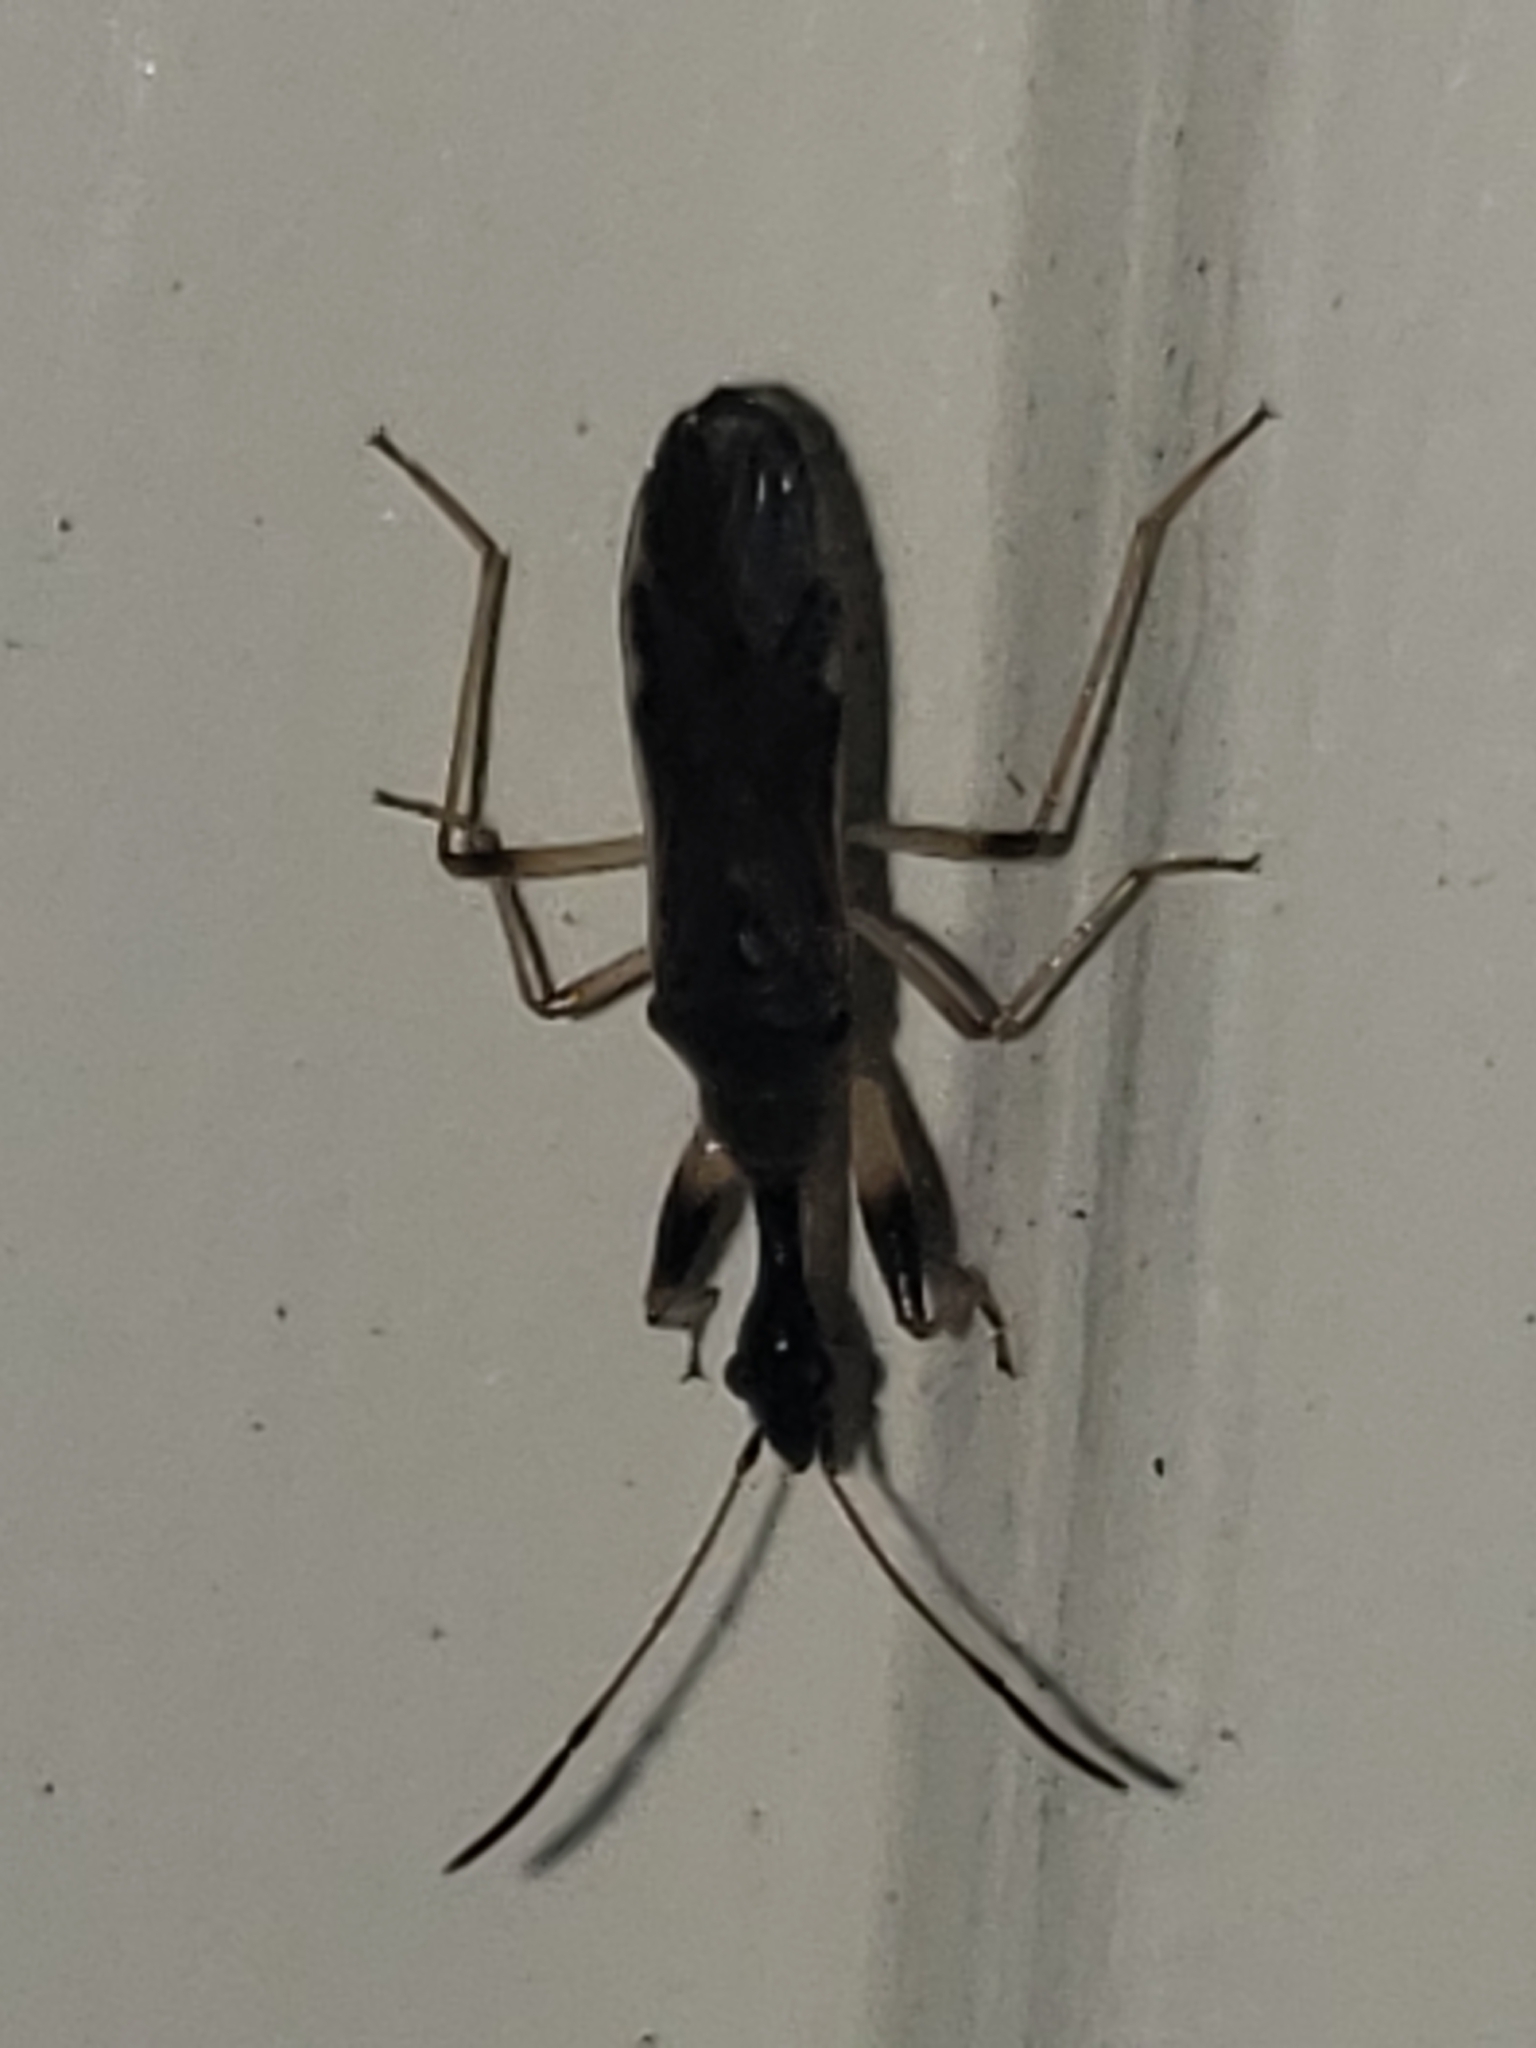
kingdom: Animalia
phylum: Arthropoda
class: Insecta
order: Hemiptera
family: Rhyparochromidae
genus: Myodocha
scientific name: Myodocha serripes
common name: Long-necked seed bug
